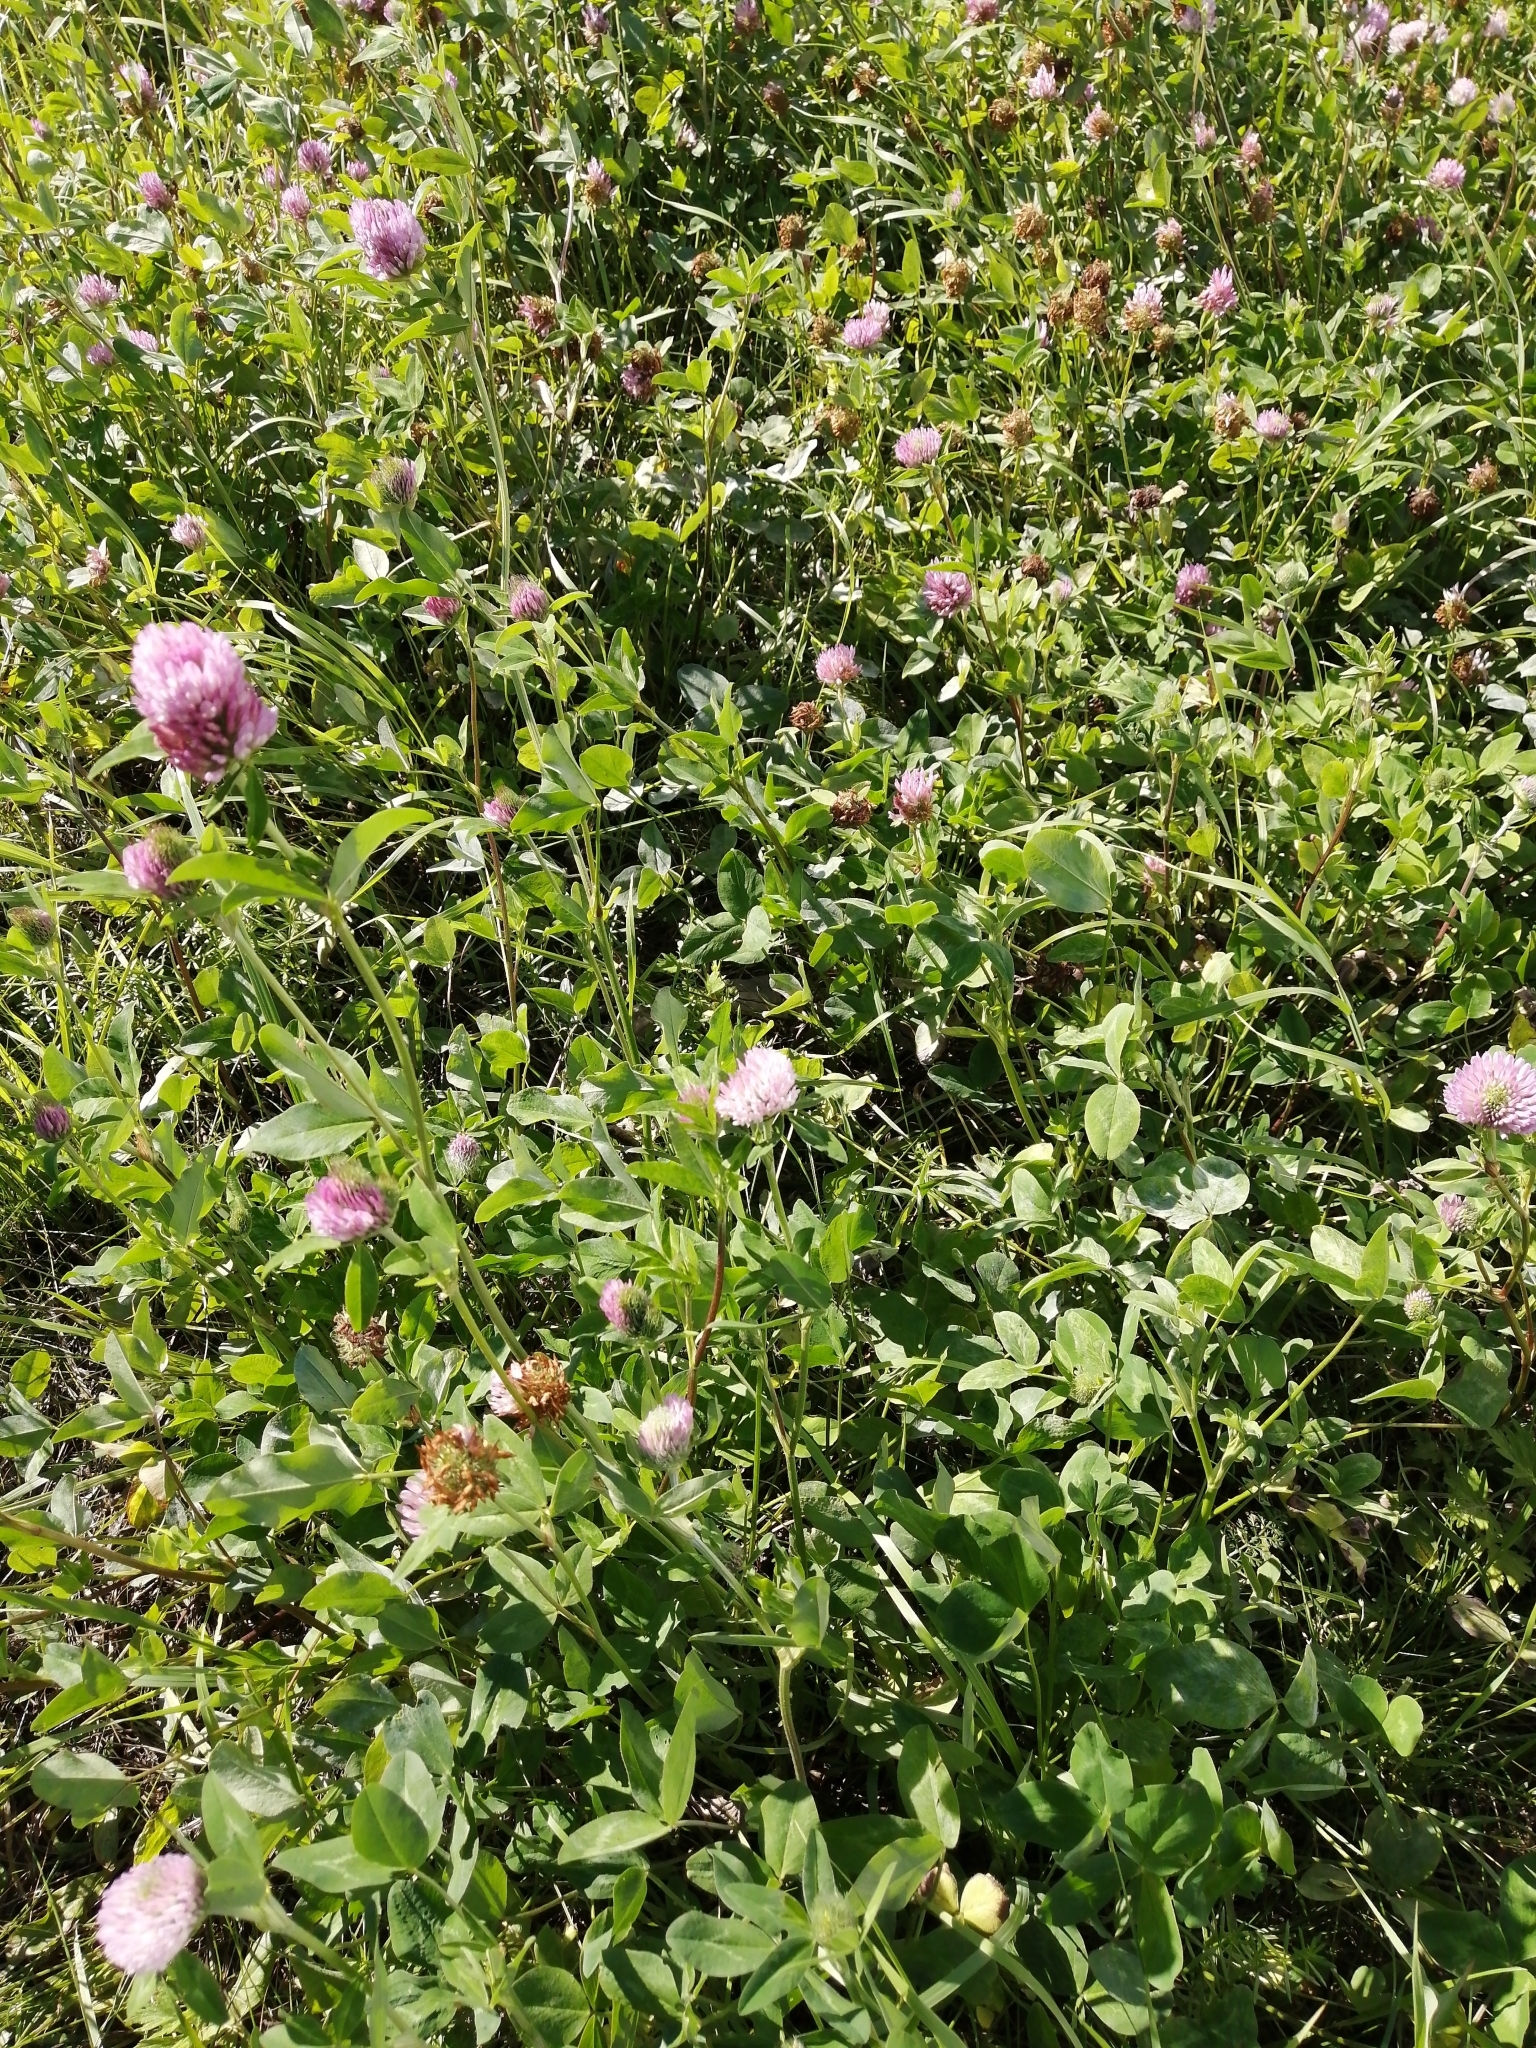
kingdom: Plantae
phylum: Tracheophyta
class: Magnoliopsida
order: Fabales
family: Fabaceae
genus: Trifolium
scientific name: Trifolium pratense
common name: Red clover
